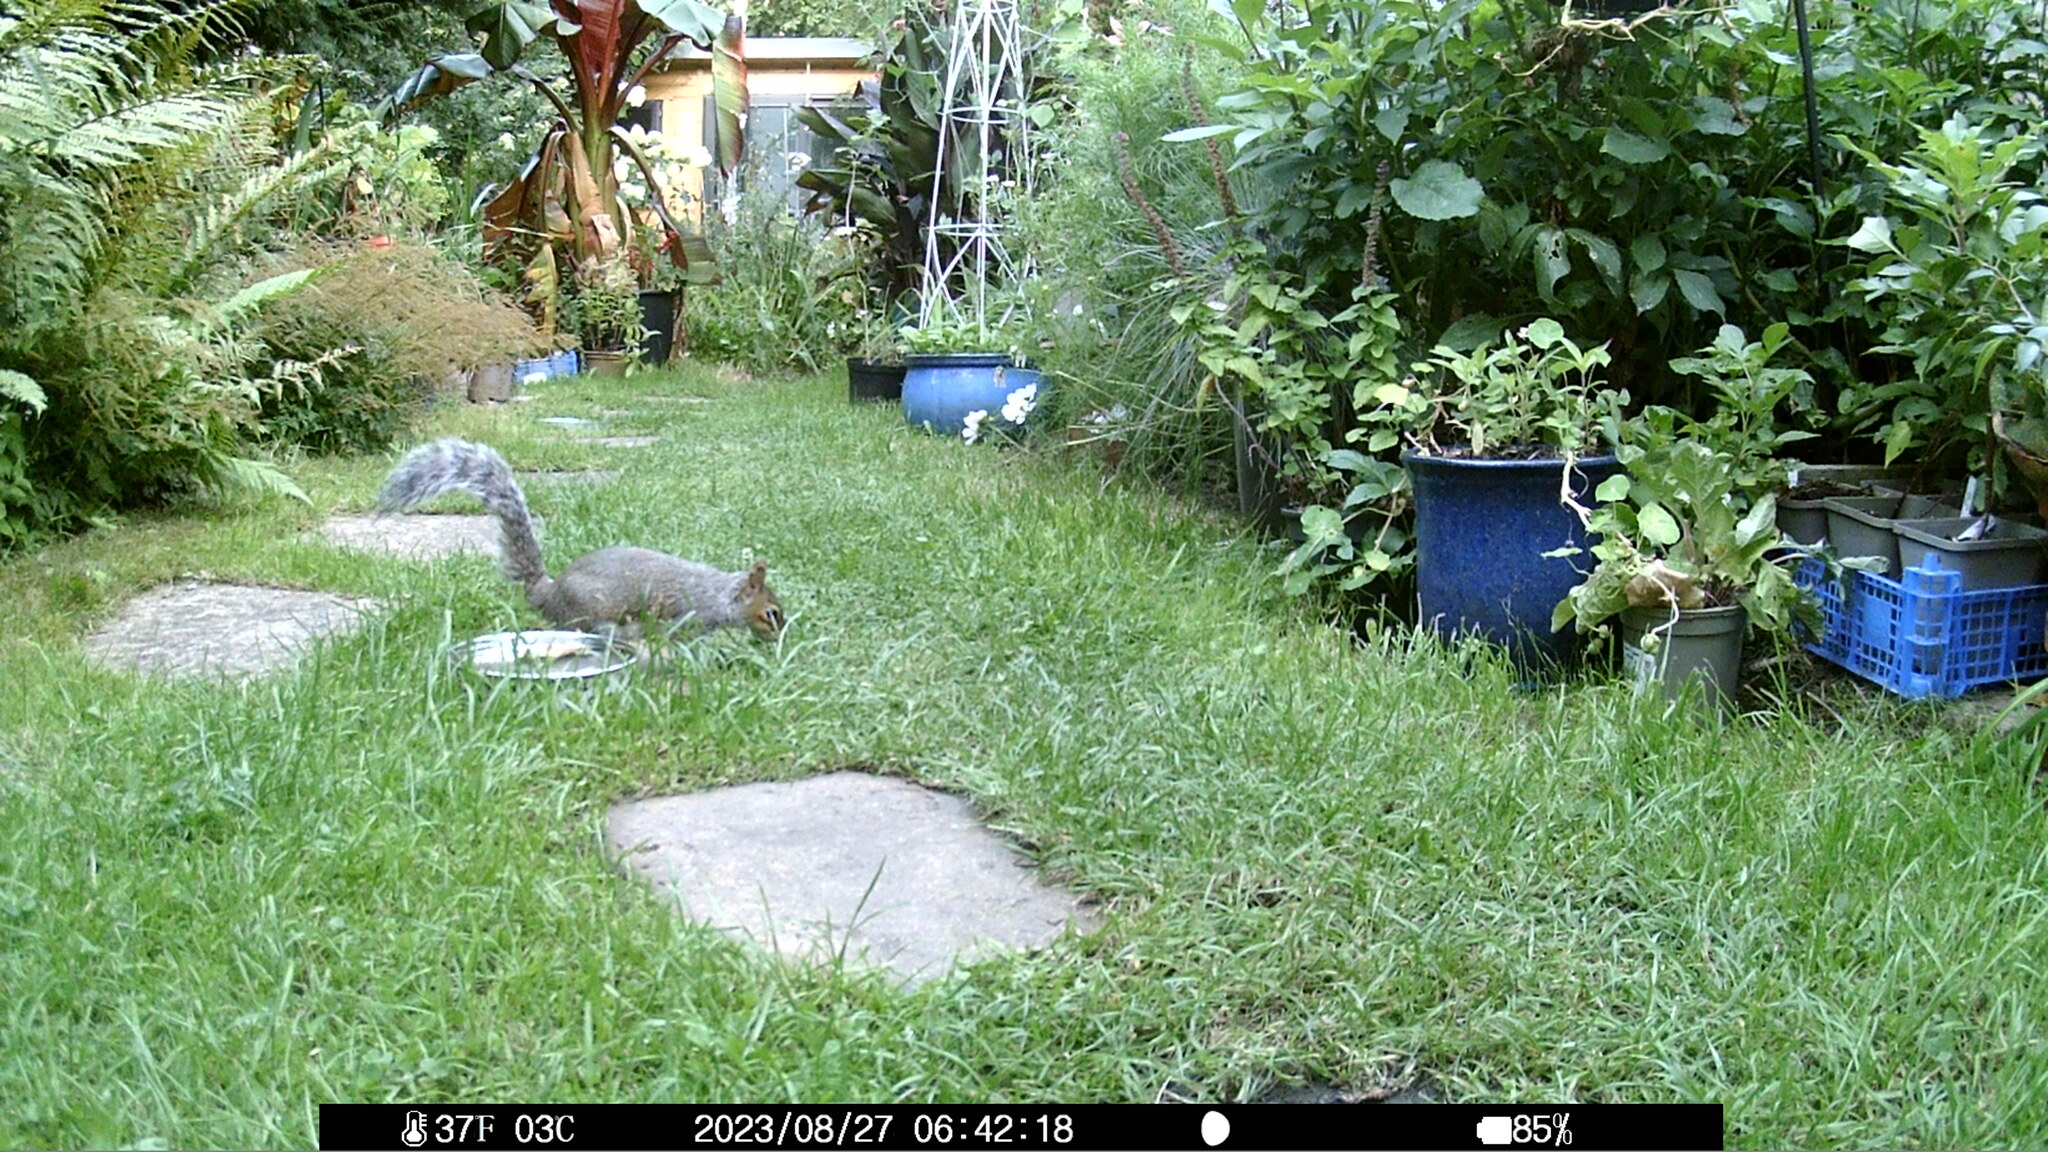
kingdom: Animalia
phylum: Chordata
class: Mammalia
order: Rodentia
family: Sciuridae
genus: Sciurus
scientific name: Sciurus carolinensis
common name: Eastern gray squirrel
